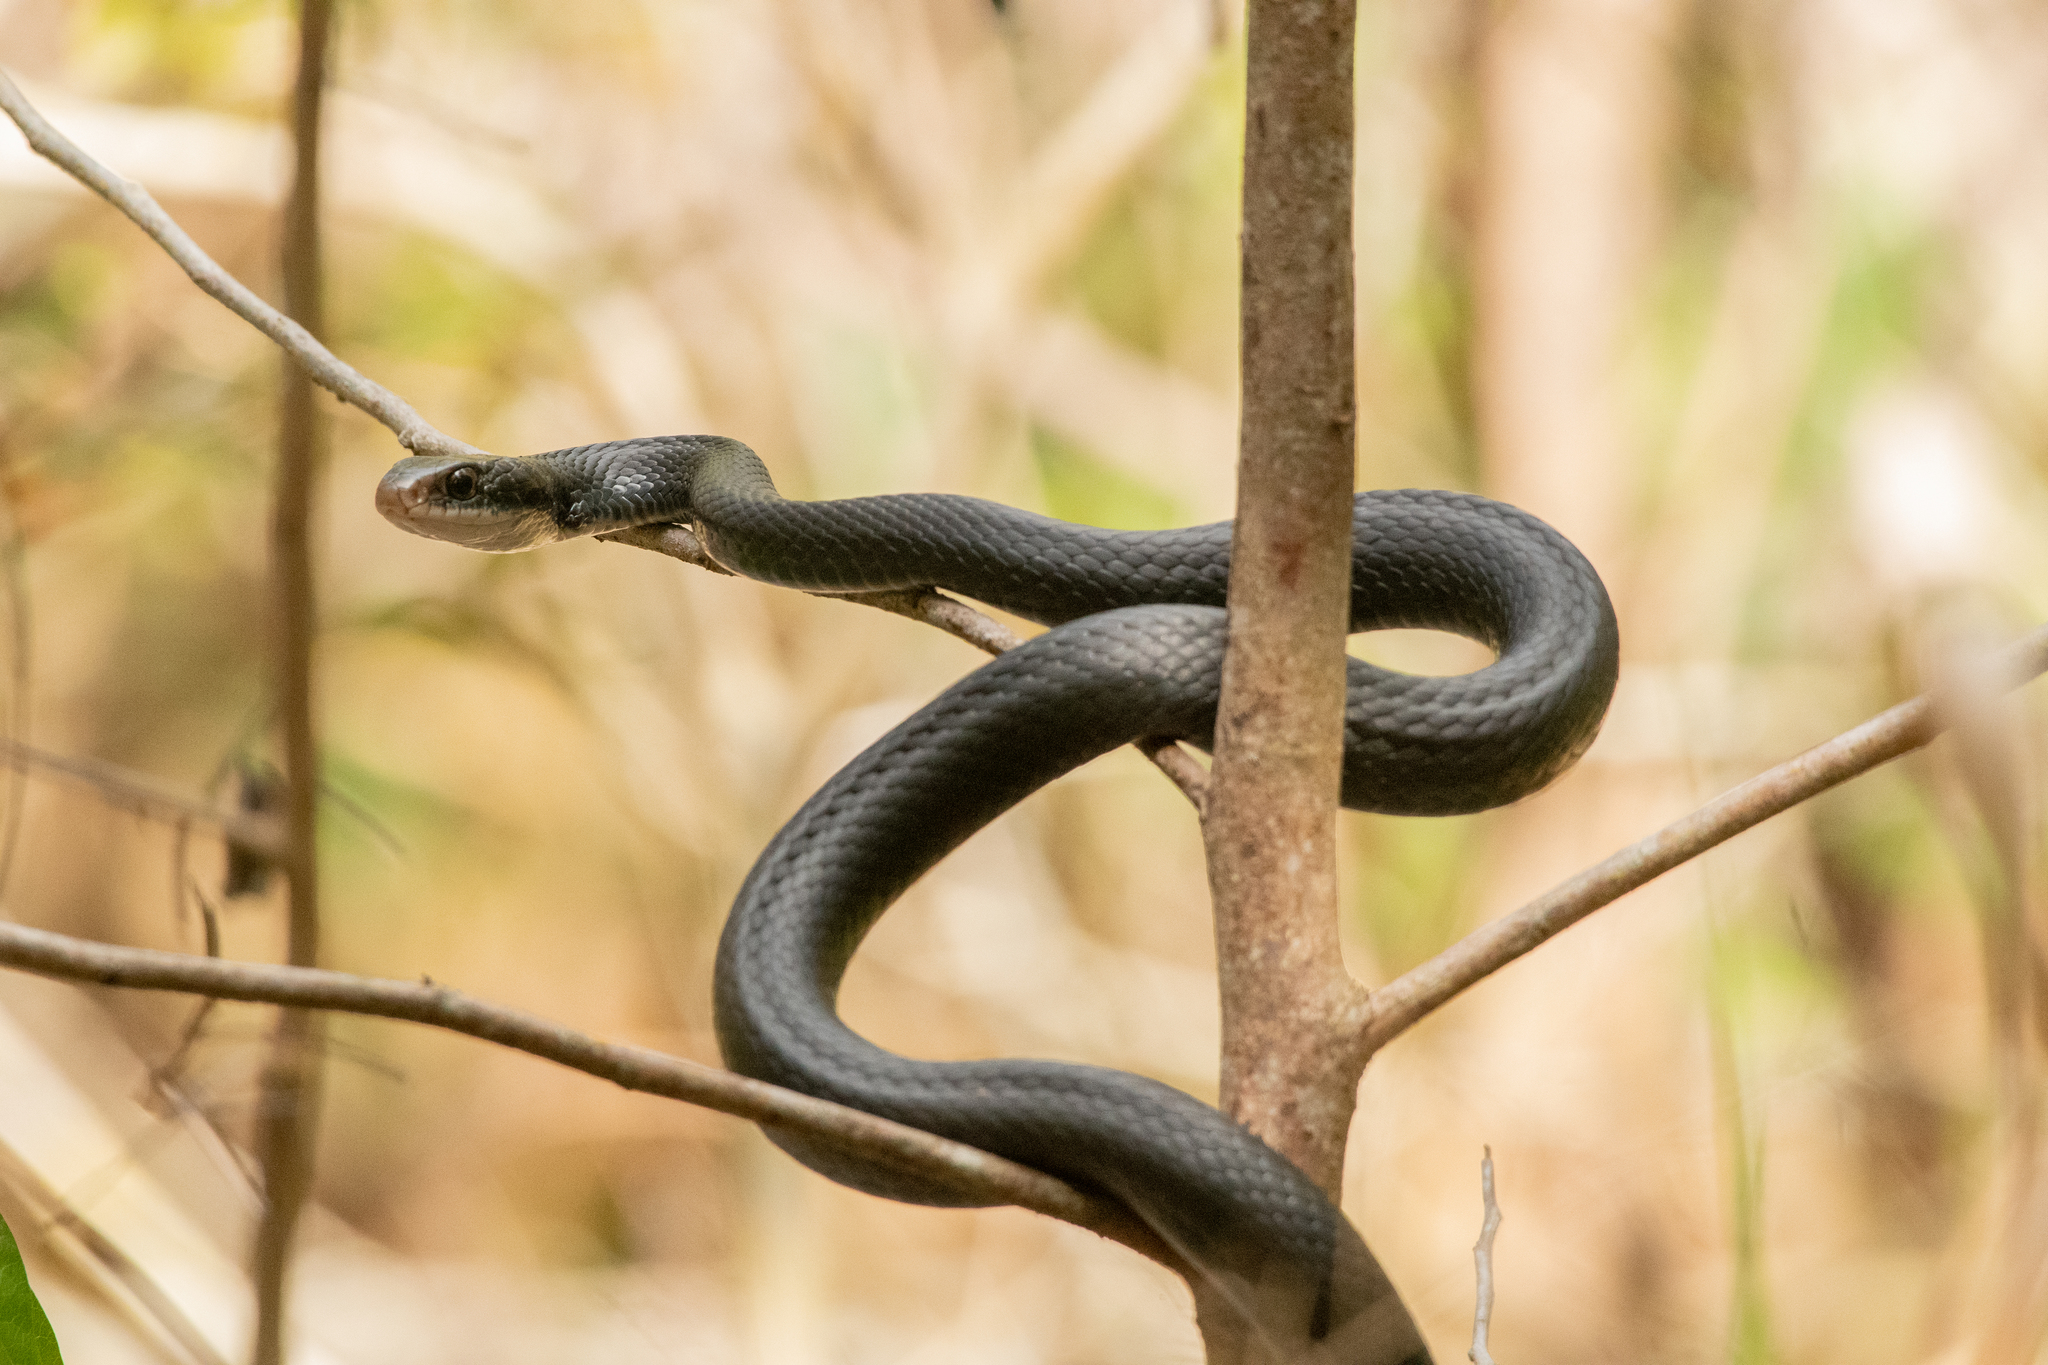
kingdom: Animalia
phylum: Chordata
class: Squamata
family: Colubridae
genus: Coluber
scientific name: Coluber constrictor
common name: Eastern racer
